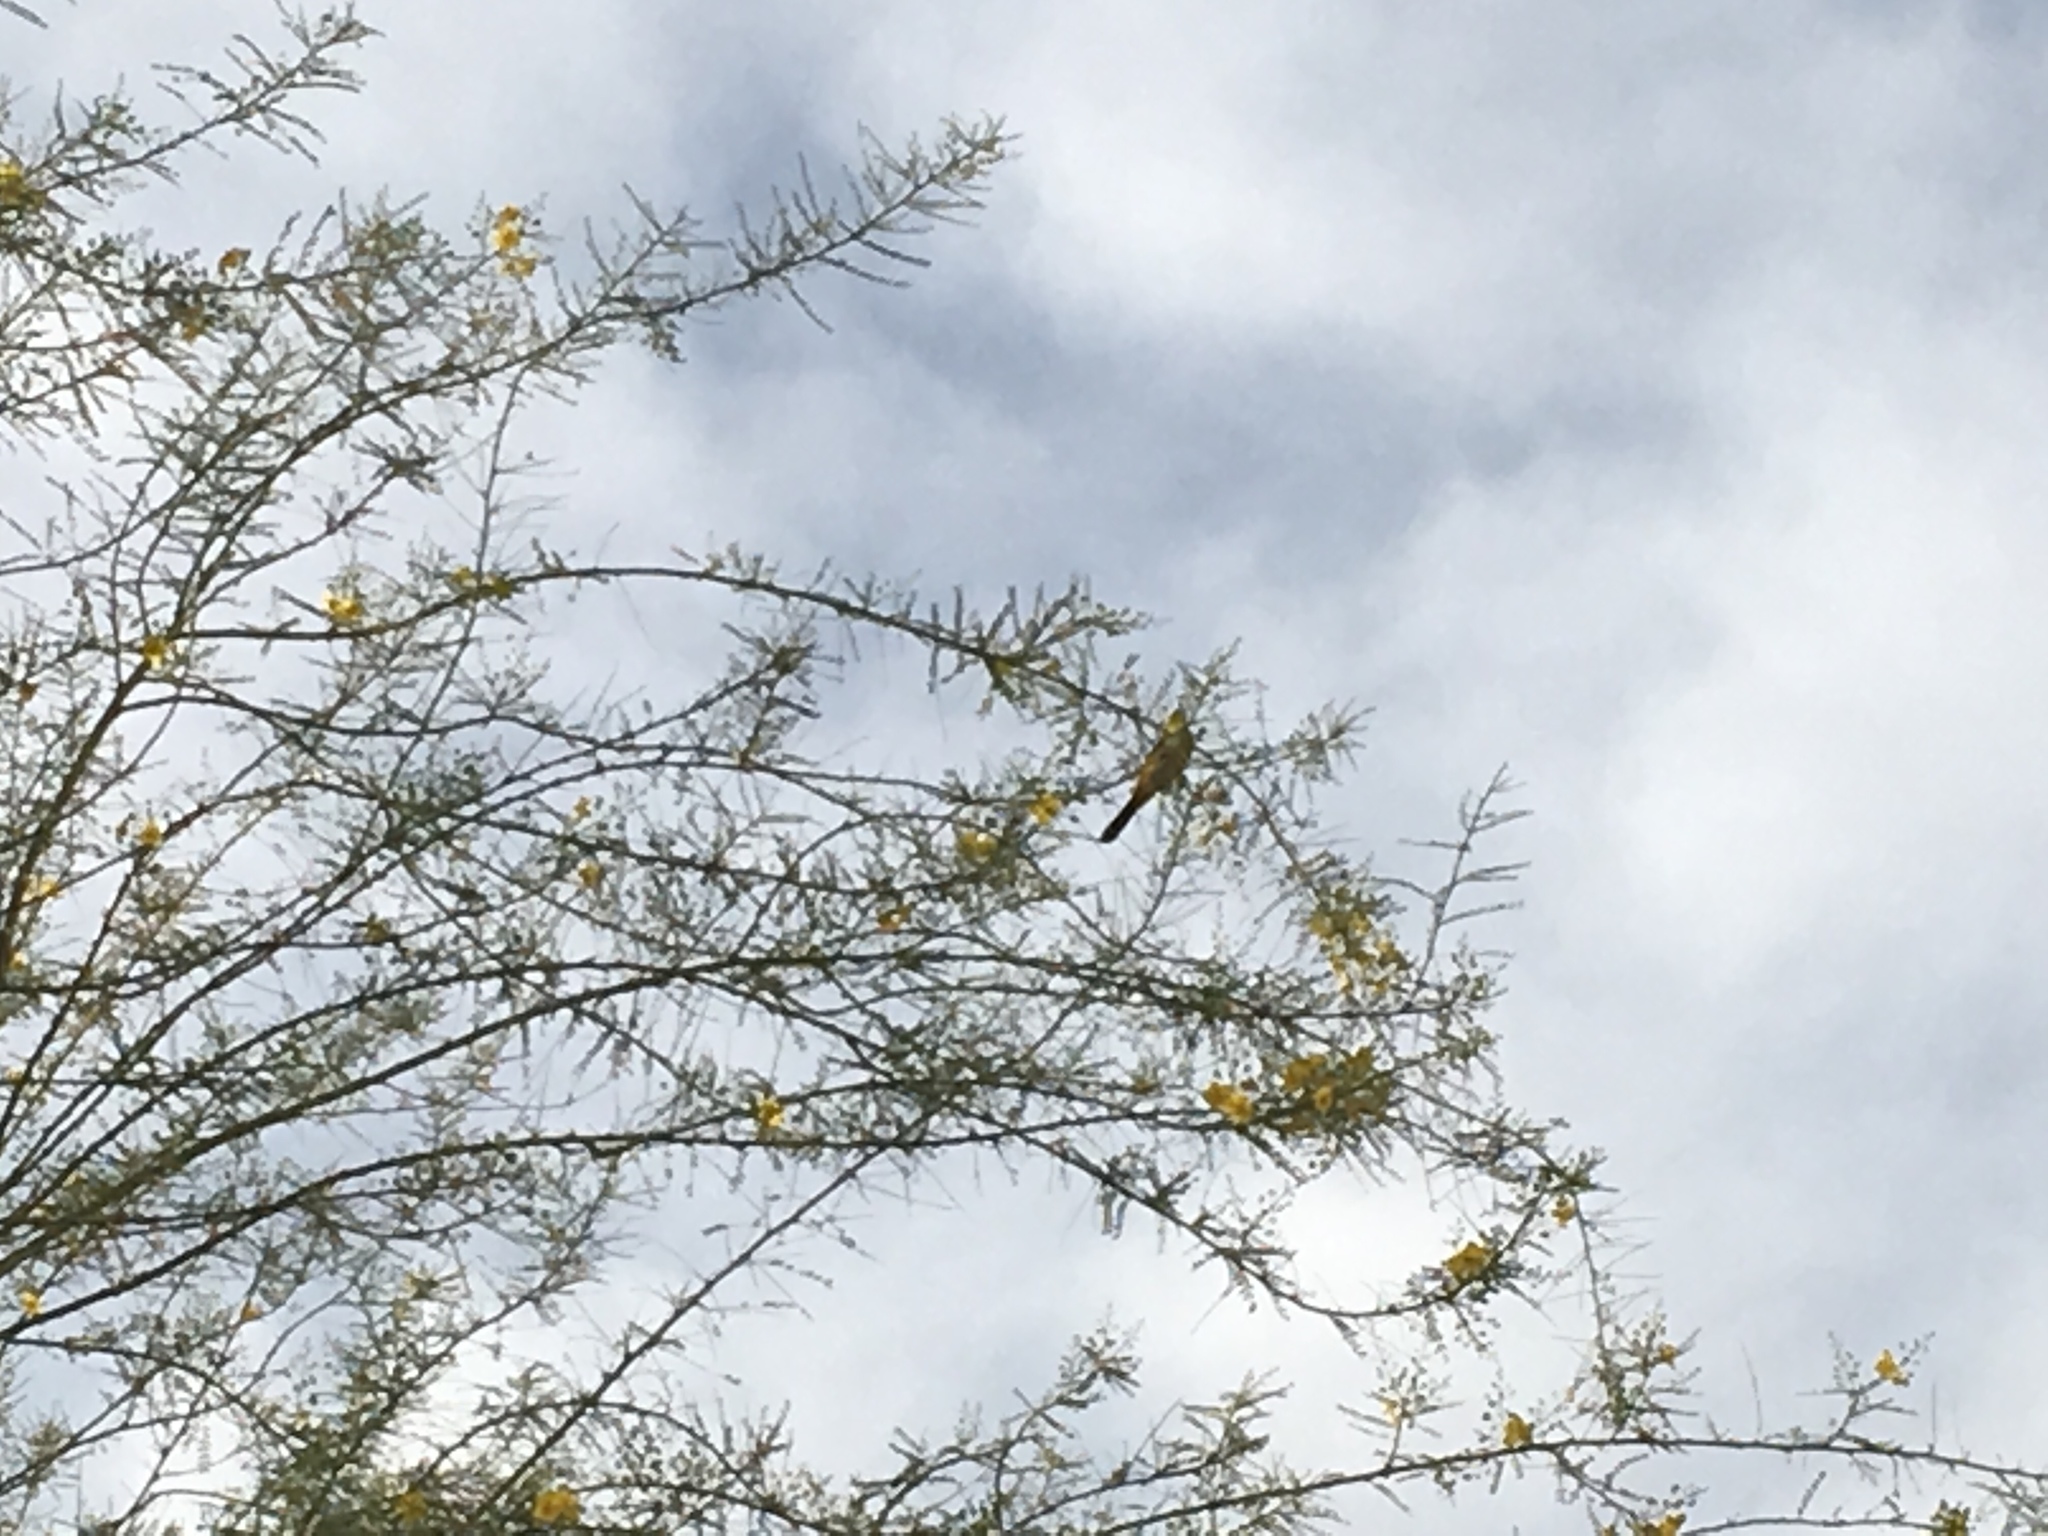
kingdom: Animalia
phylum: Chordata
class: Aves
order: Passeriformes
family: Icteridae
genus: Icterus
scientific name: Icterus cucullatus
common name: Hooded oriole
